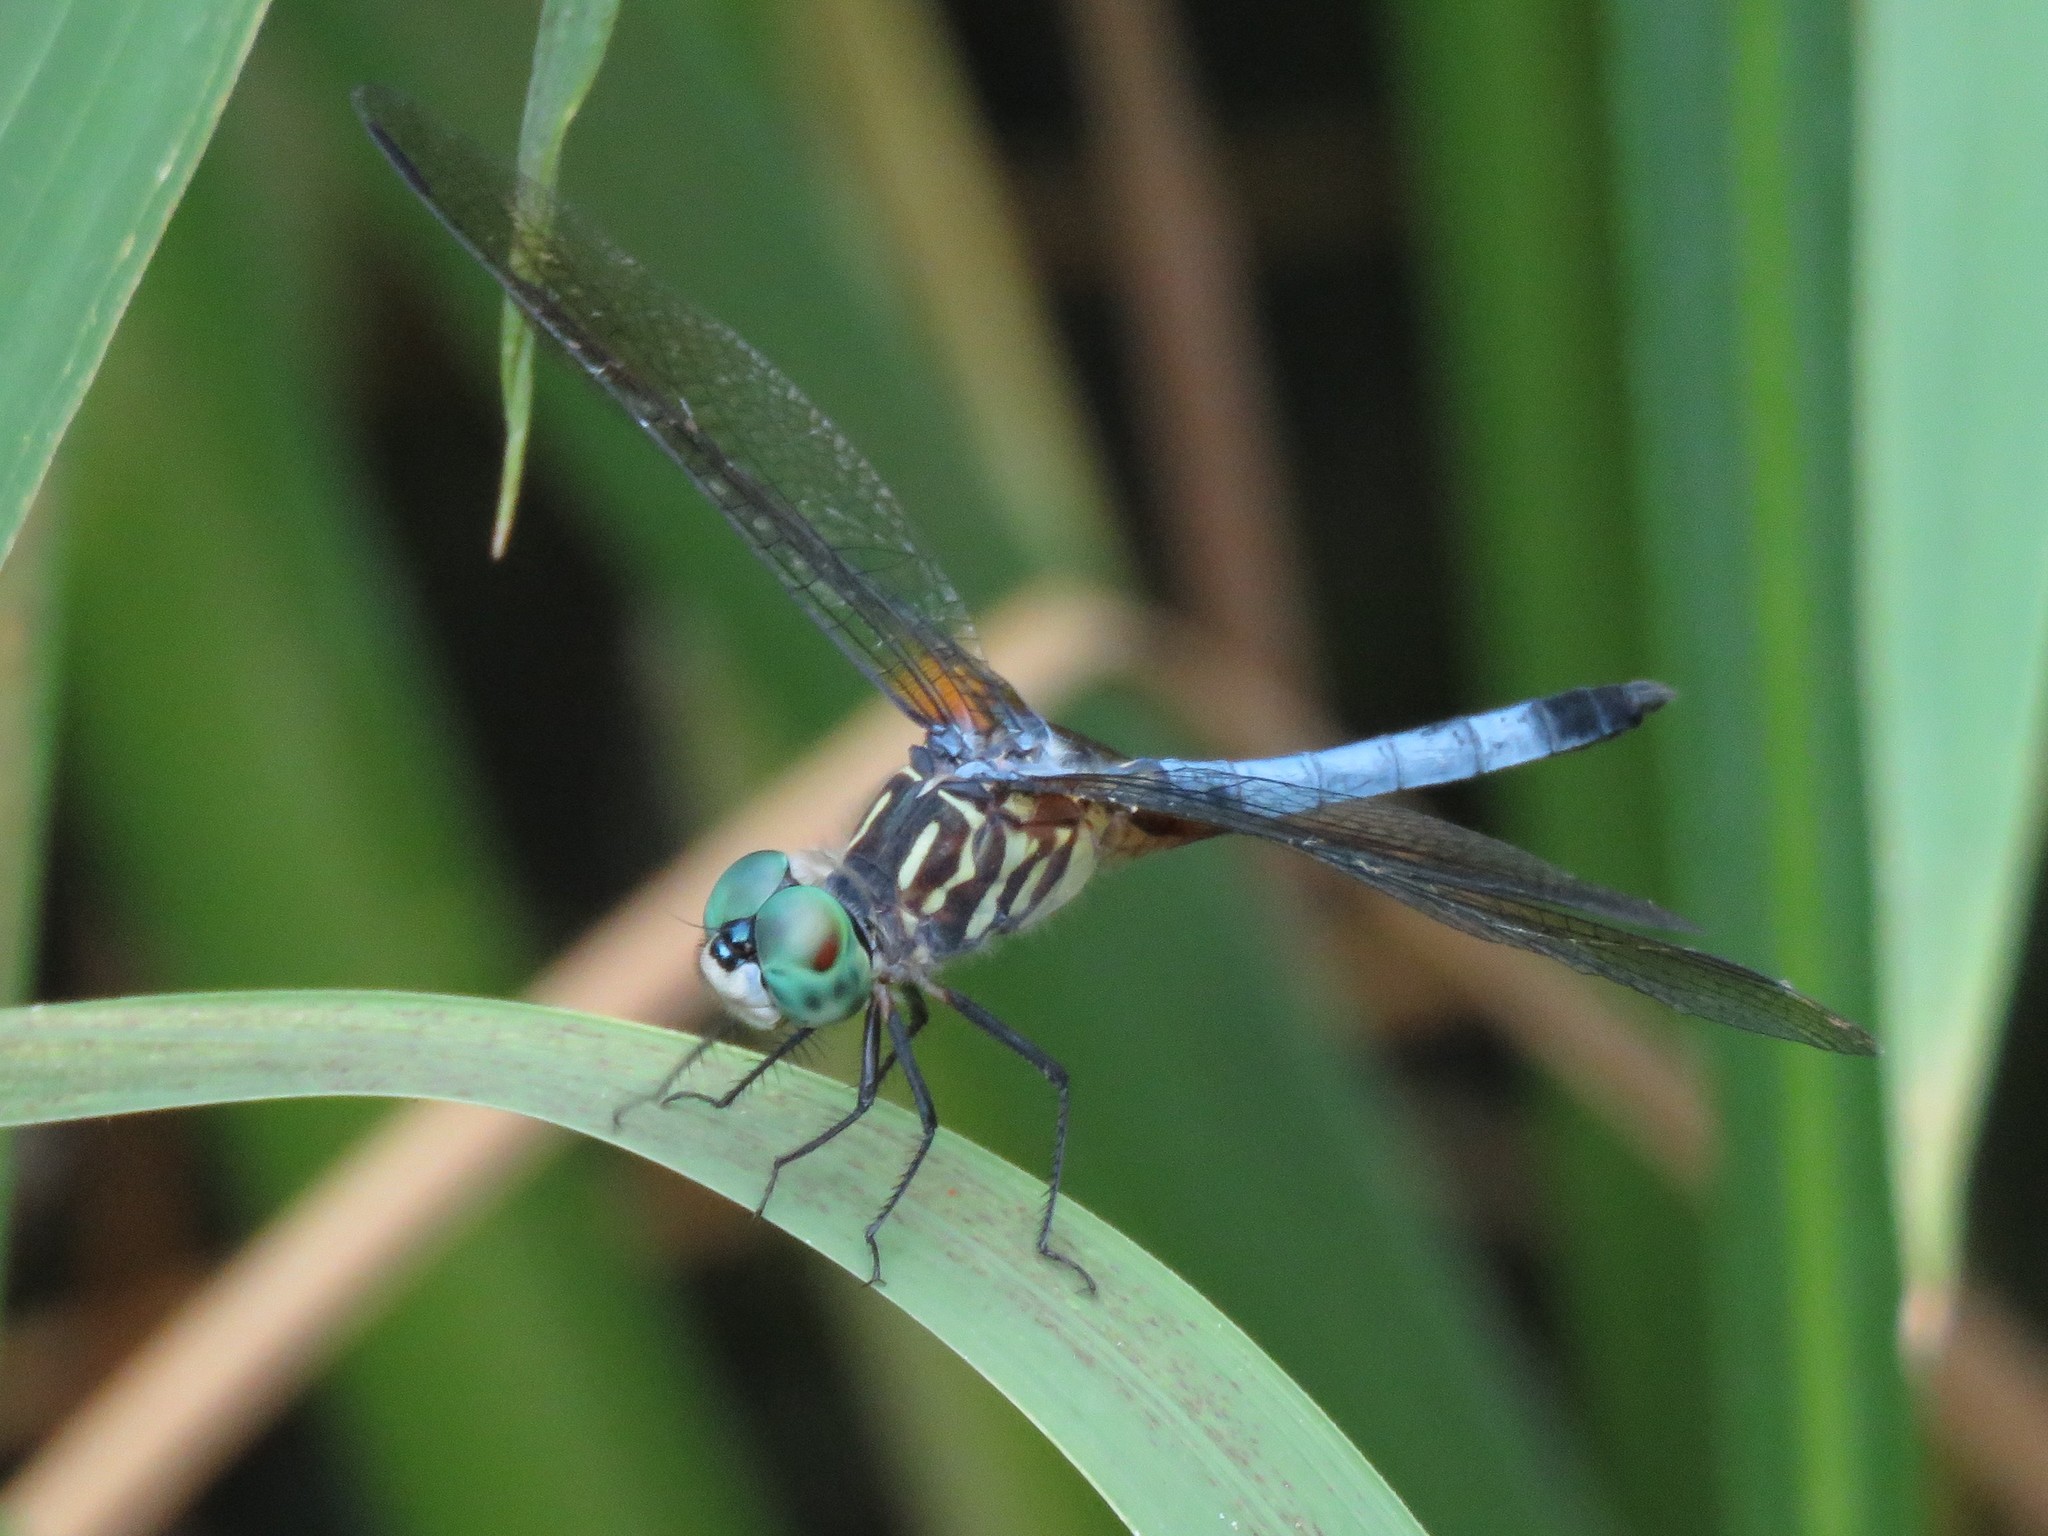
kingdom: Animalia
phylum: Arthropoda
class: Insecta
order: Odonata
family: Libellulidae
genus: Pachydiplax
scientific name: Pachydiplax longipennis
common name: Blue dasher
